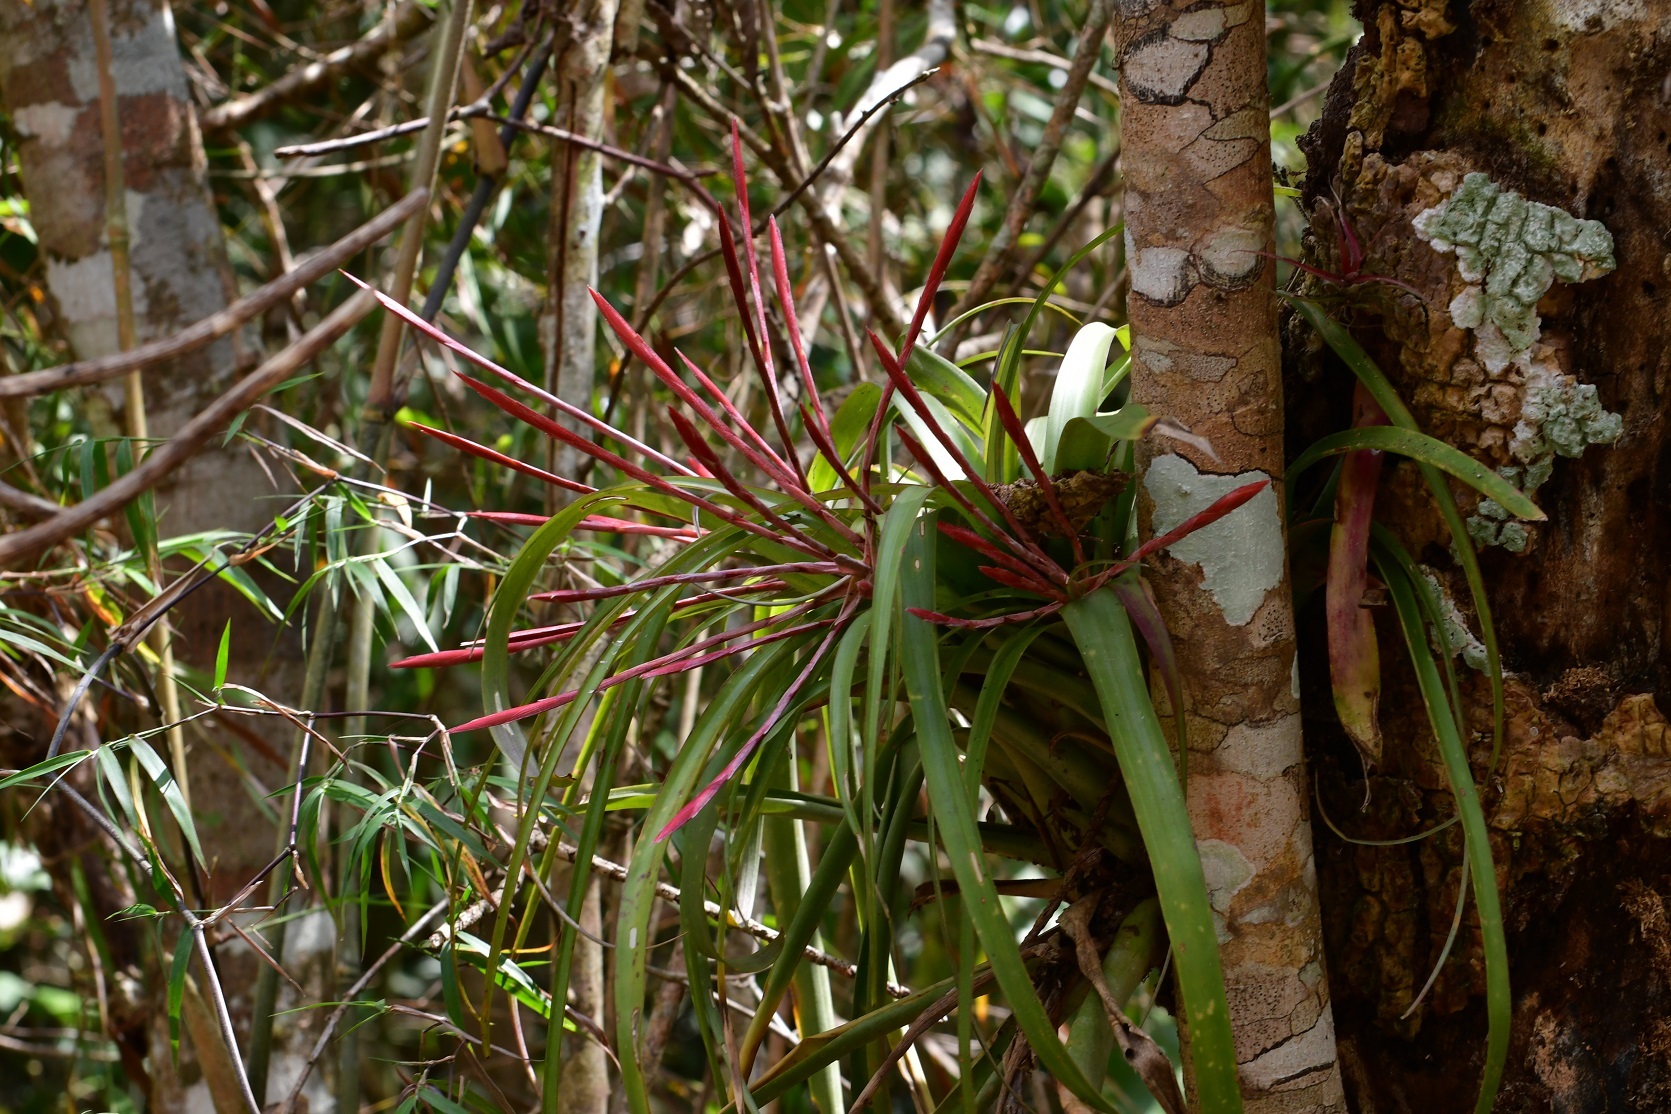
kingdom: Plantae
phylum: Tracheophyta
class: Liliopsida
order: Poales
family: Bromeliaceae
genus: Tillandsia
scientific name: Tillandsia flabellata
